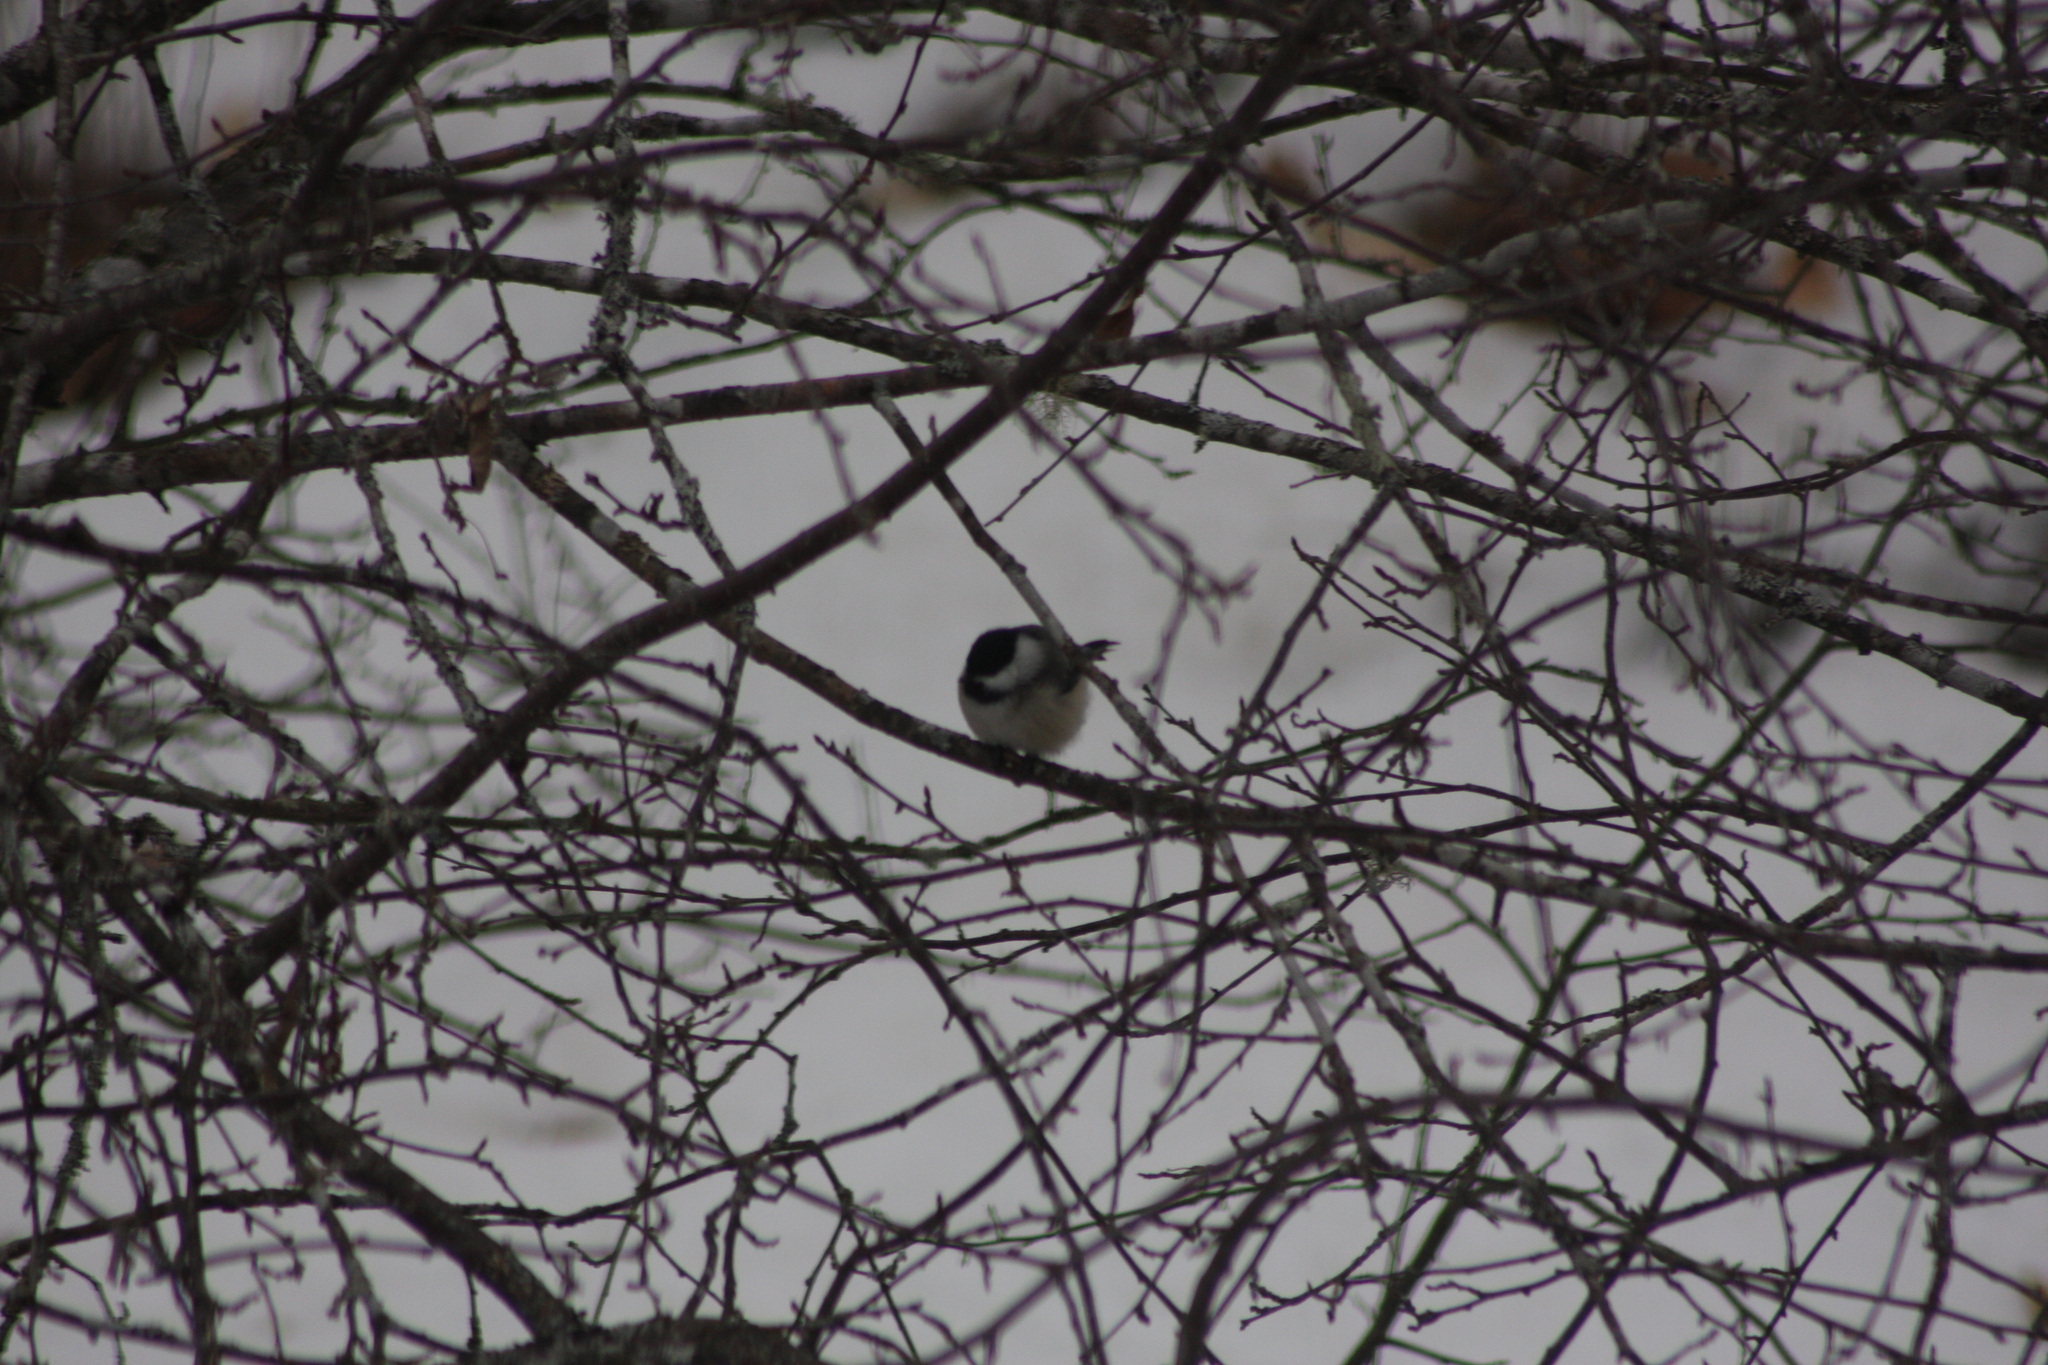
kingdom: Animalia
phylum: Chordata
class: Aves
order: Passeriformes
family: Paridae
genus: Poecile
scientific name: Poecile atricapillus
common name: Black-capped chickadee
